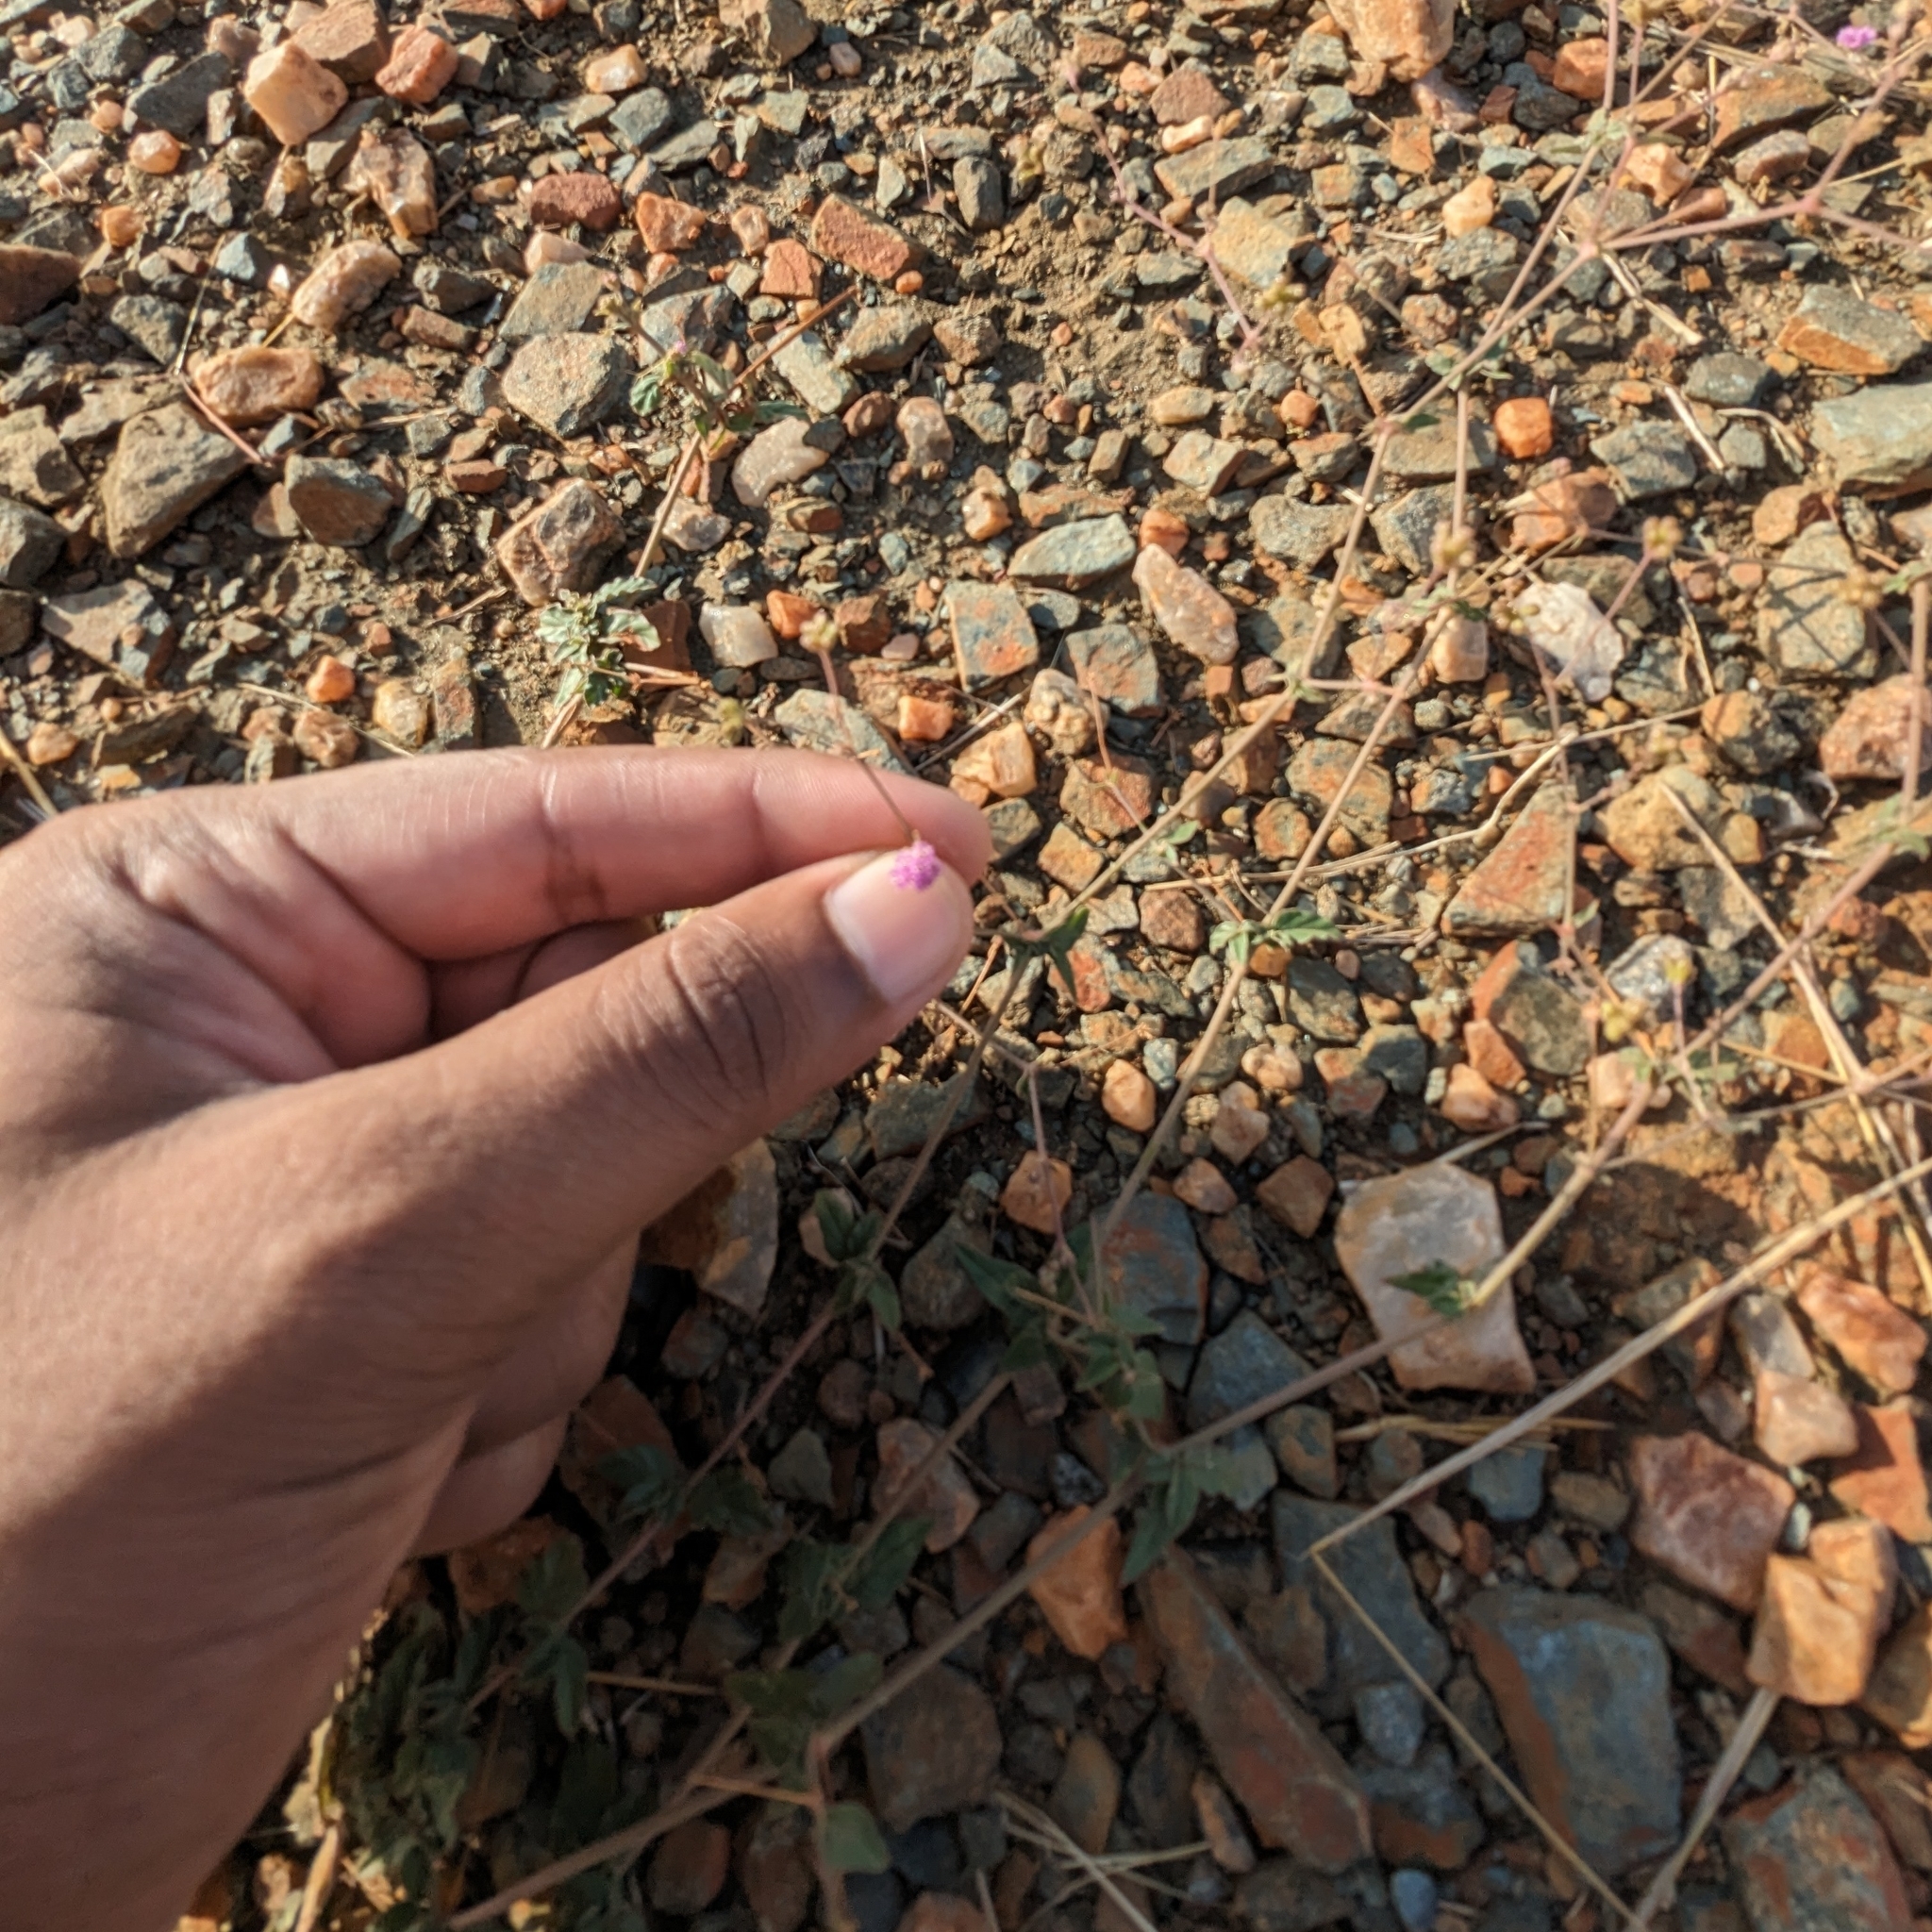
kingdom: Plantae
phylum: Tracheophyta
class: Magnoliopsida
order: Caryophyllales
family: Nyctaginaceae
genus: Boerhavia
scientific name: Boerhavia erecta
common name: Erect spiderling
